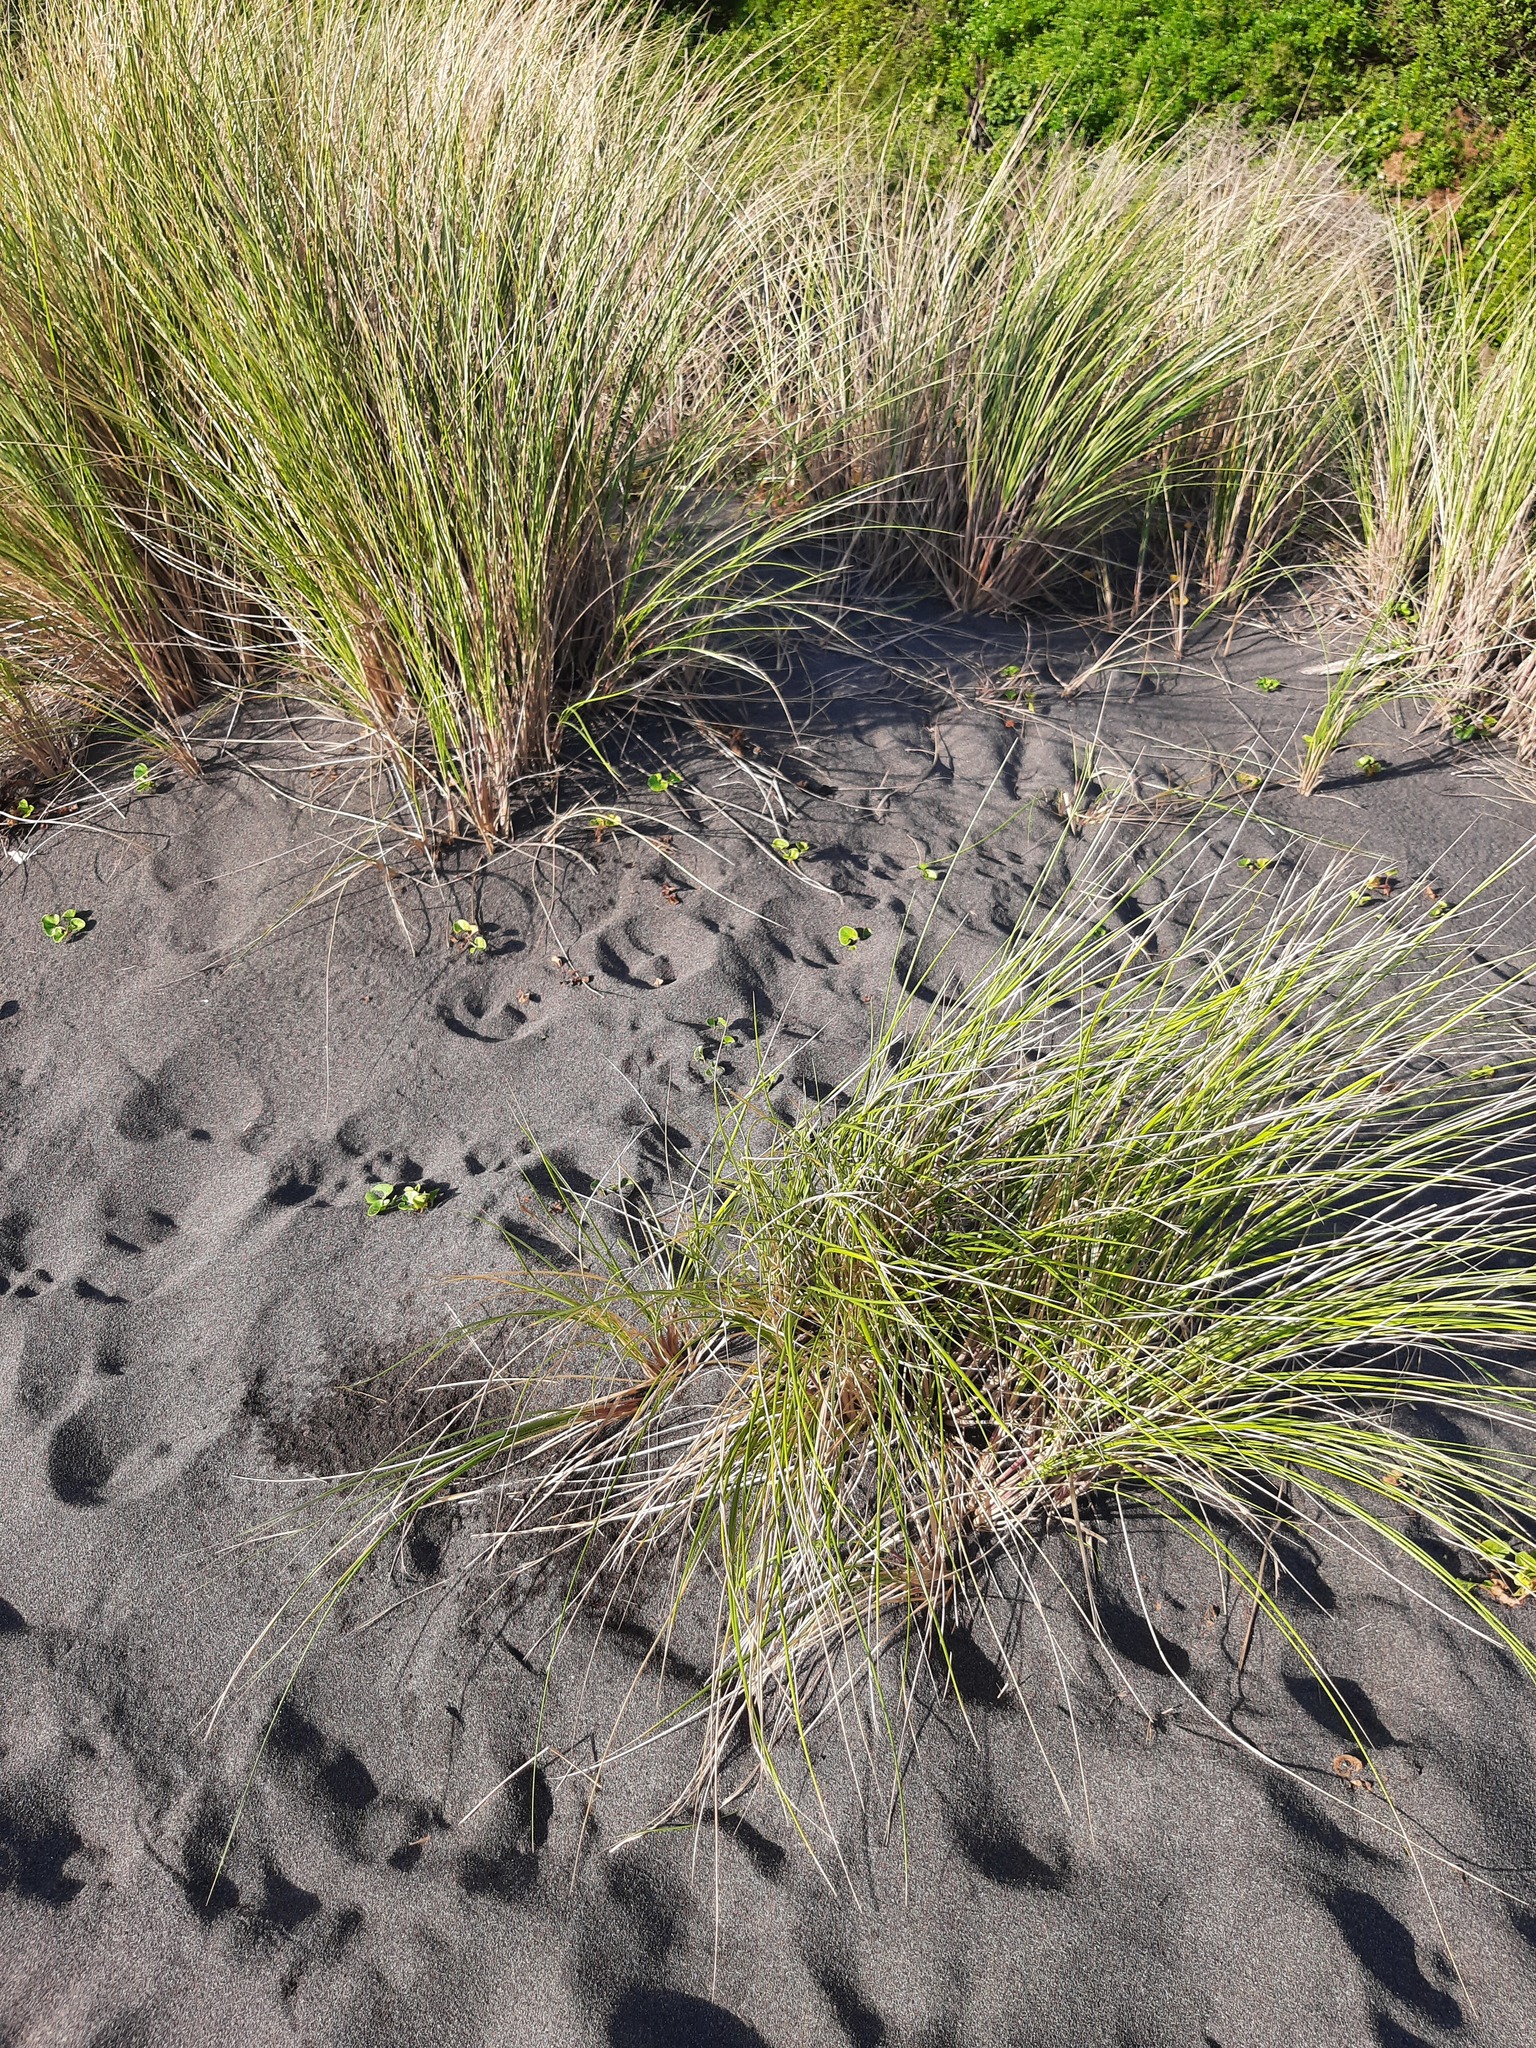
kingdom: Plantae
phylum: Tracheophyta
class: Liliopsida
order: Poales
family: Poaceae
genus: Calamagrostis
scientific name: Calamagrostis arenaria
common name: European beachgrass
